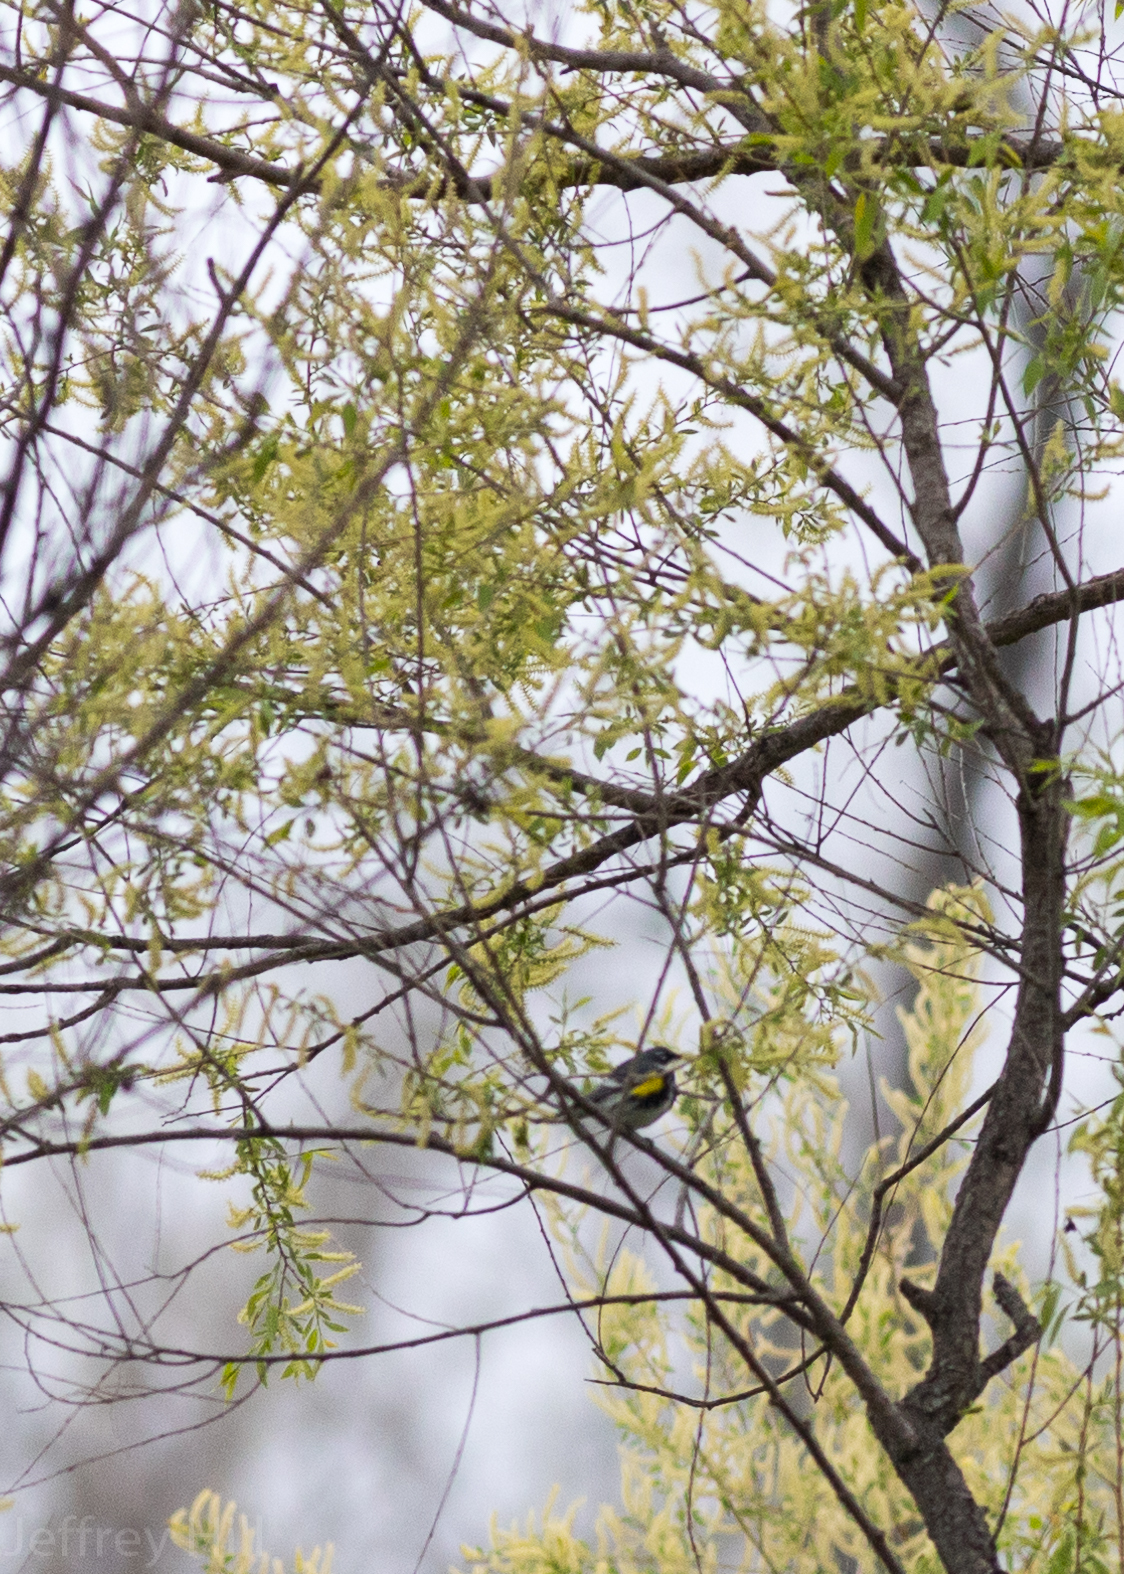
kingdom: Animalia
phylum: Chordata
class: Aves
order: Passeriformes
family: Parulidae
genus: Setophaga
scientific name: Setophaga coronata
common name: Myrtle warbler
